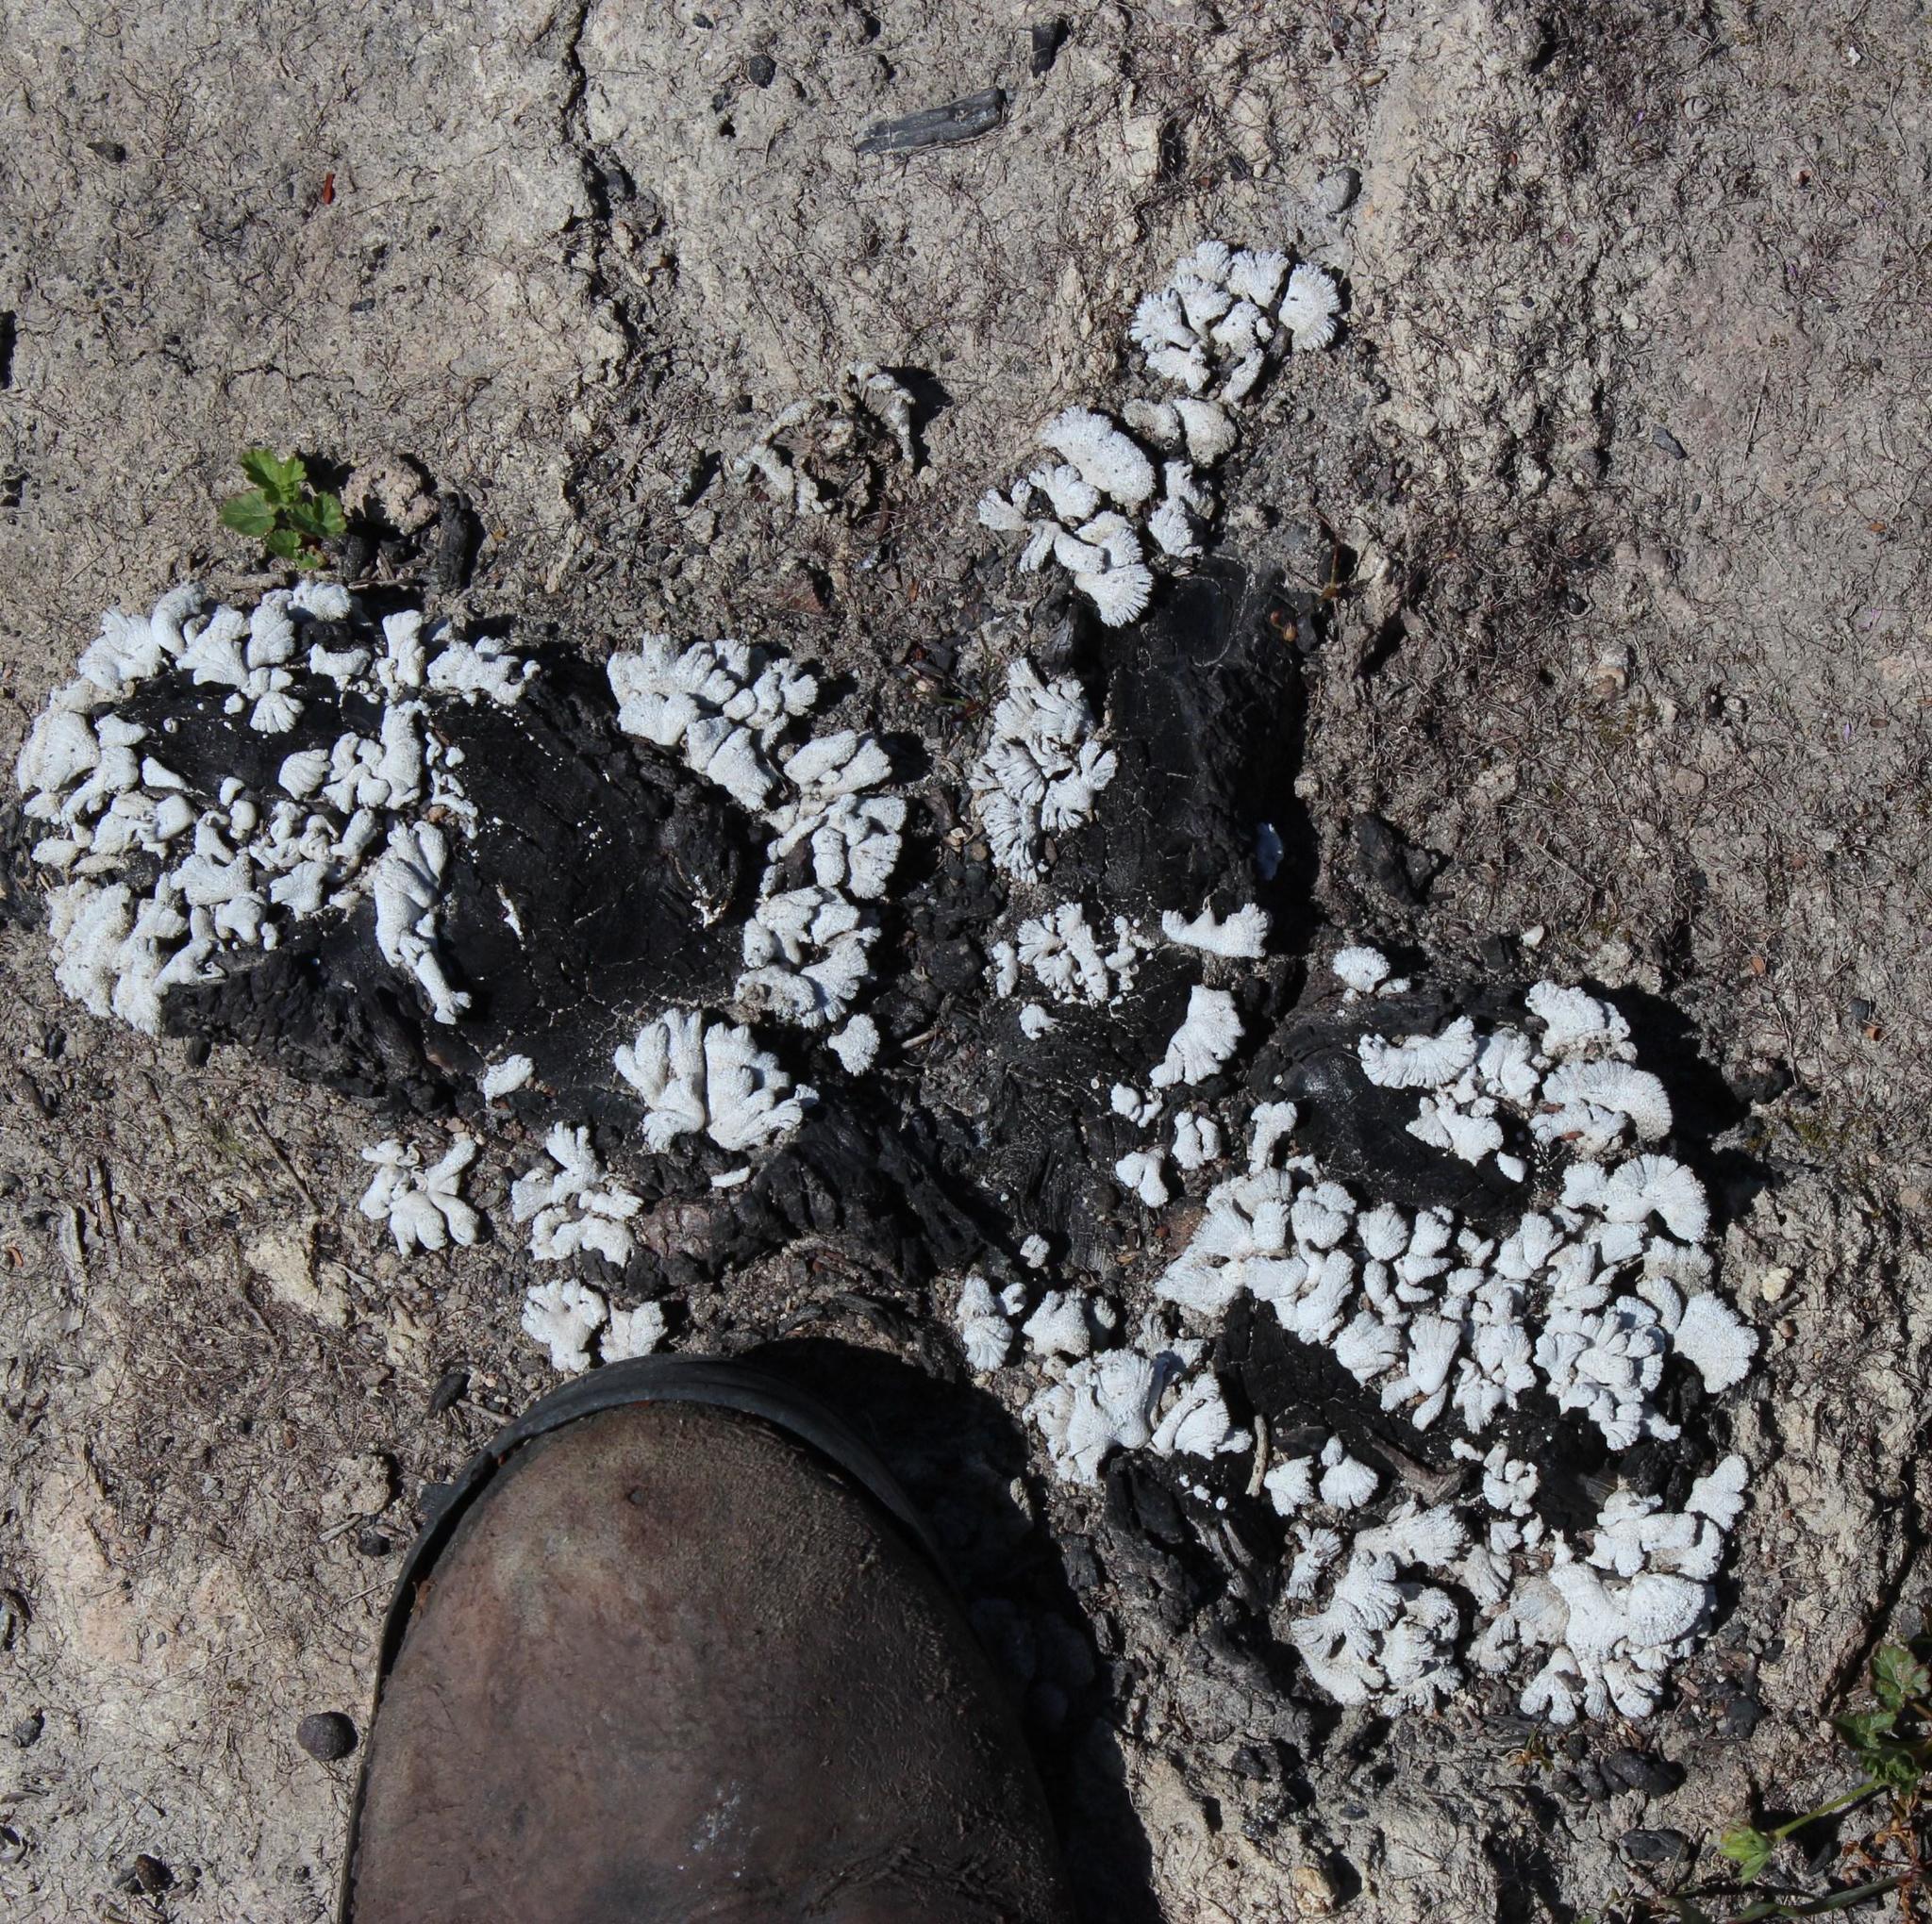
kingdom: Fungi
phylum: Basidiomycota
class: Agaricomycetes
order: Agaricales
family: Schizophyllaceae
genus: Schizophyllum
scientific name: Schizophyllum commune
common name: Common porecrust
